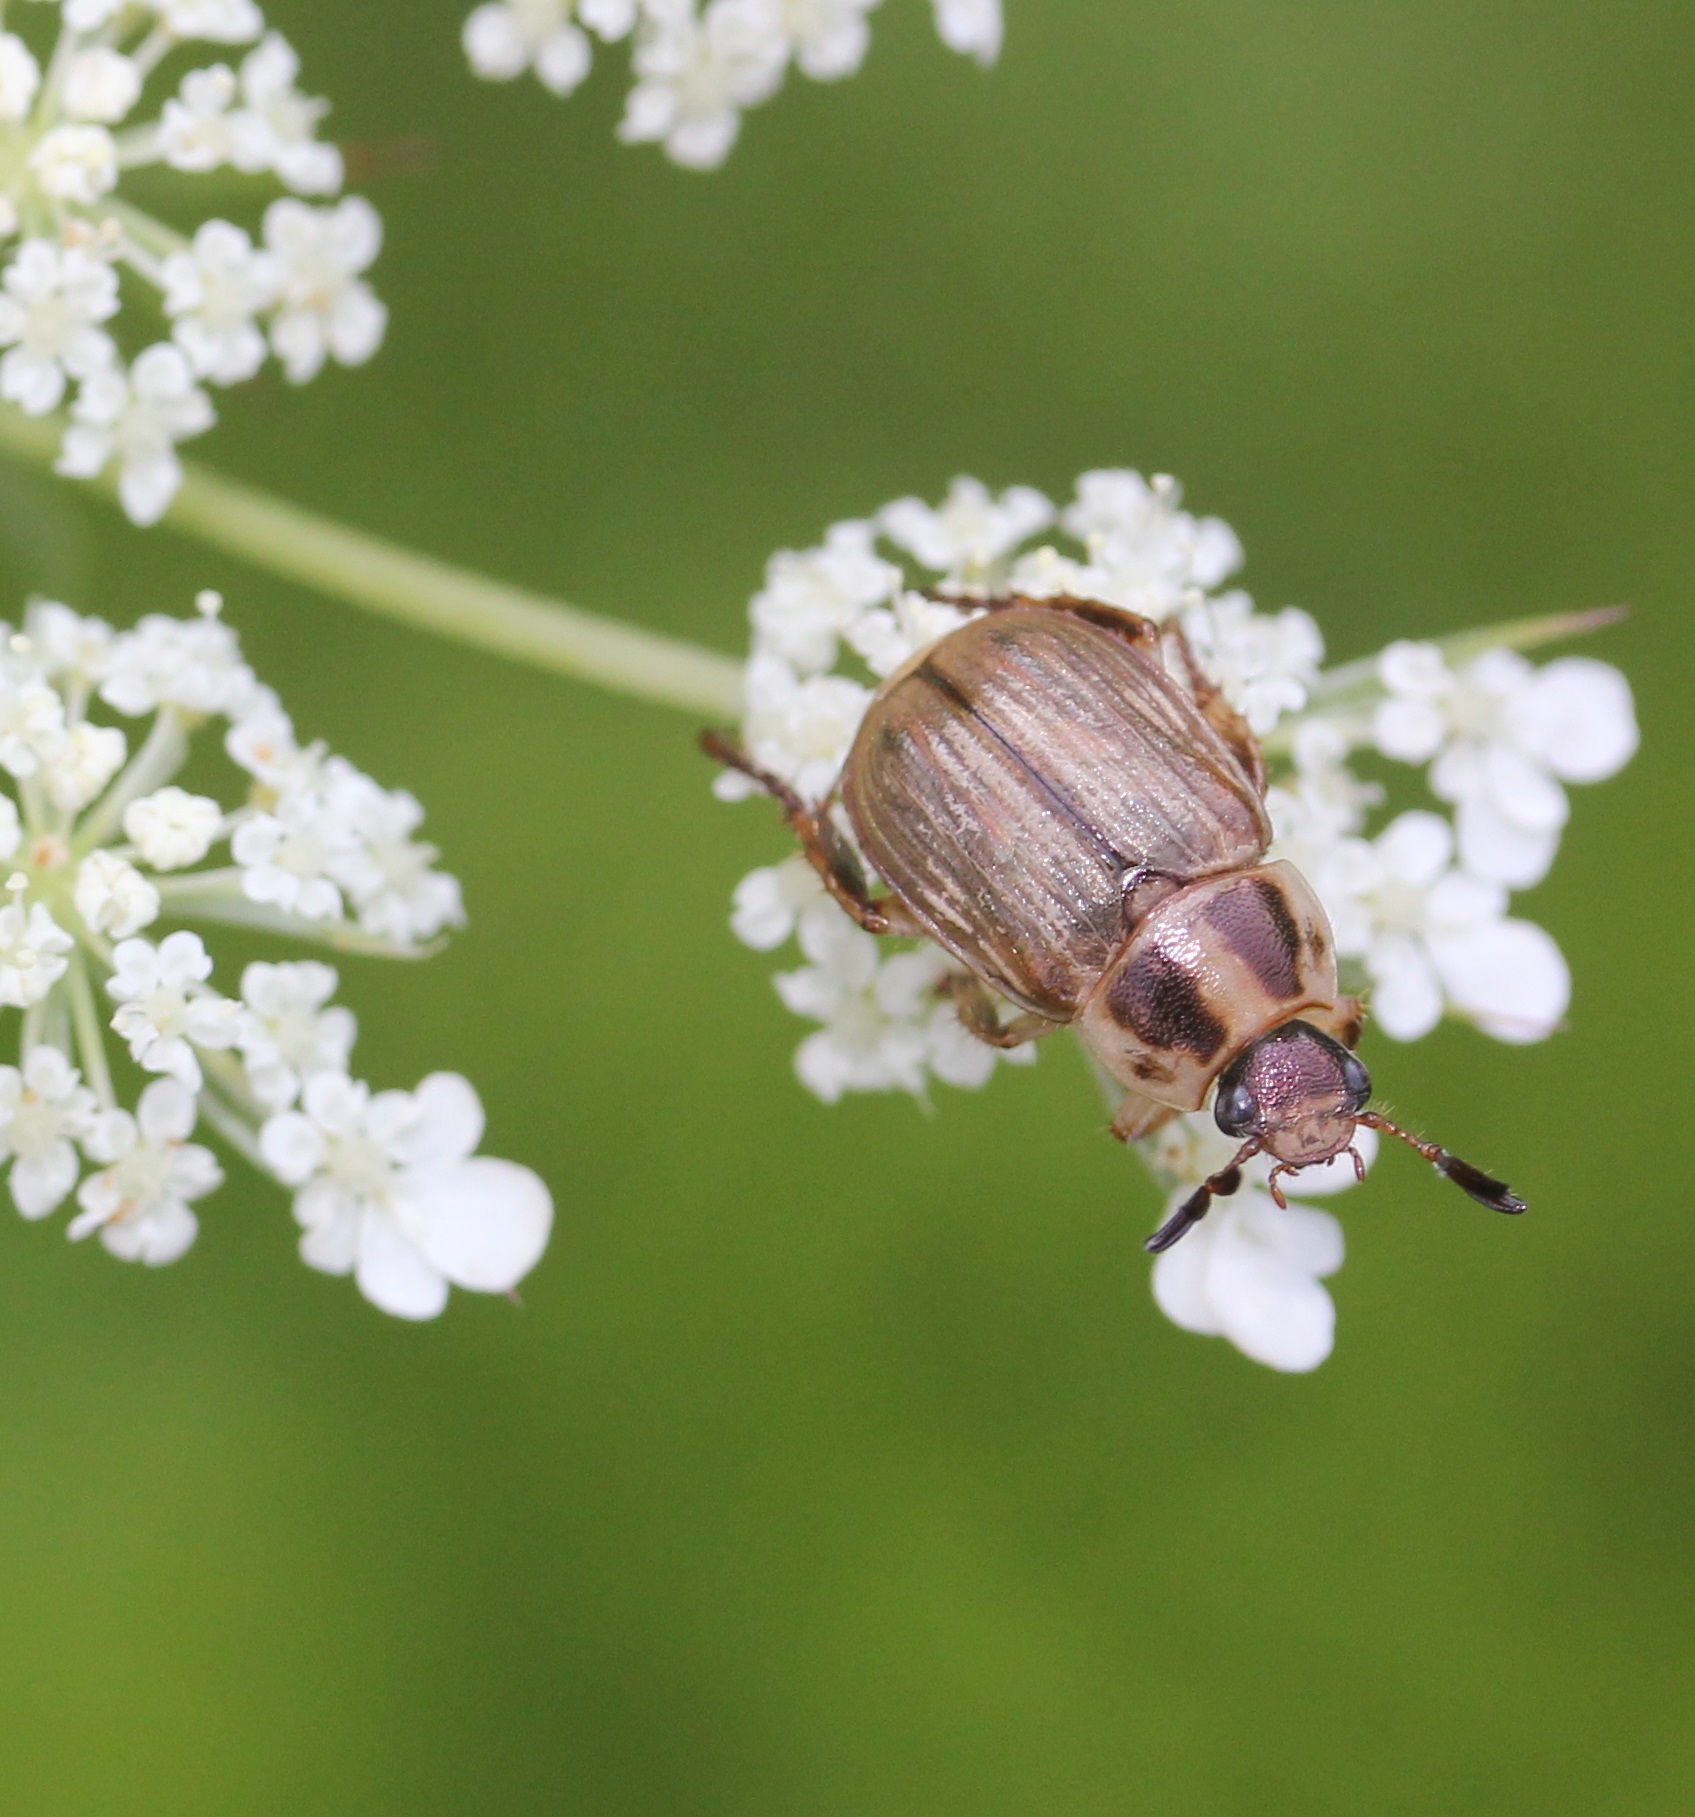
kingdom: Animalia
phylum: Arthropoda
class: Insecta
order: Coleoptera
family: Scarabaeidae
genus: Exomala
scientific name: Exomala orientalis
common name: Oriental beetle
